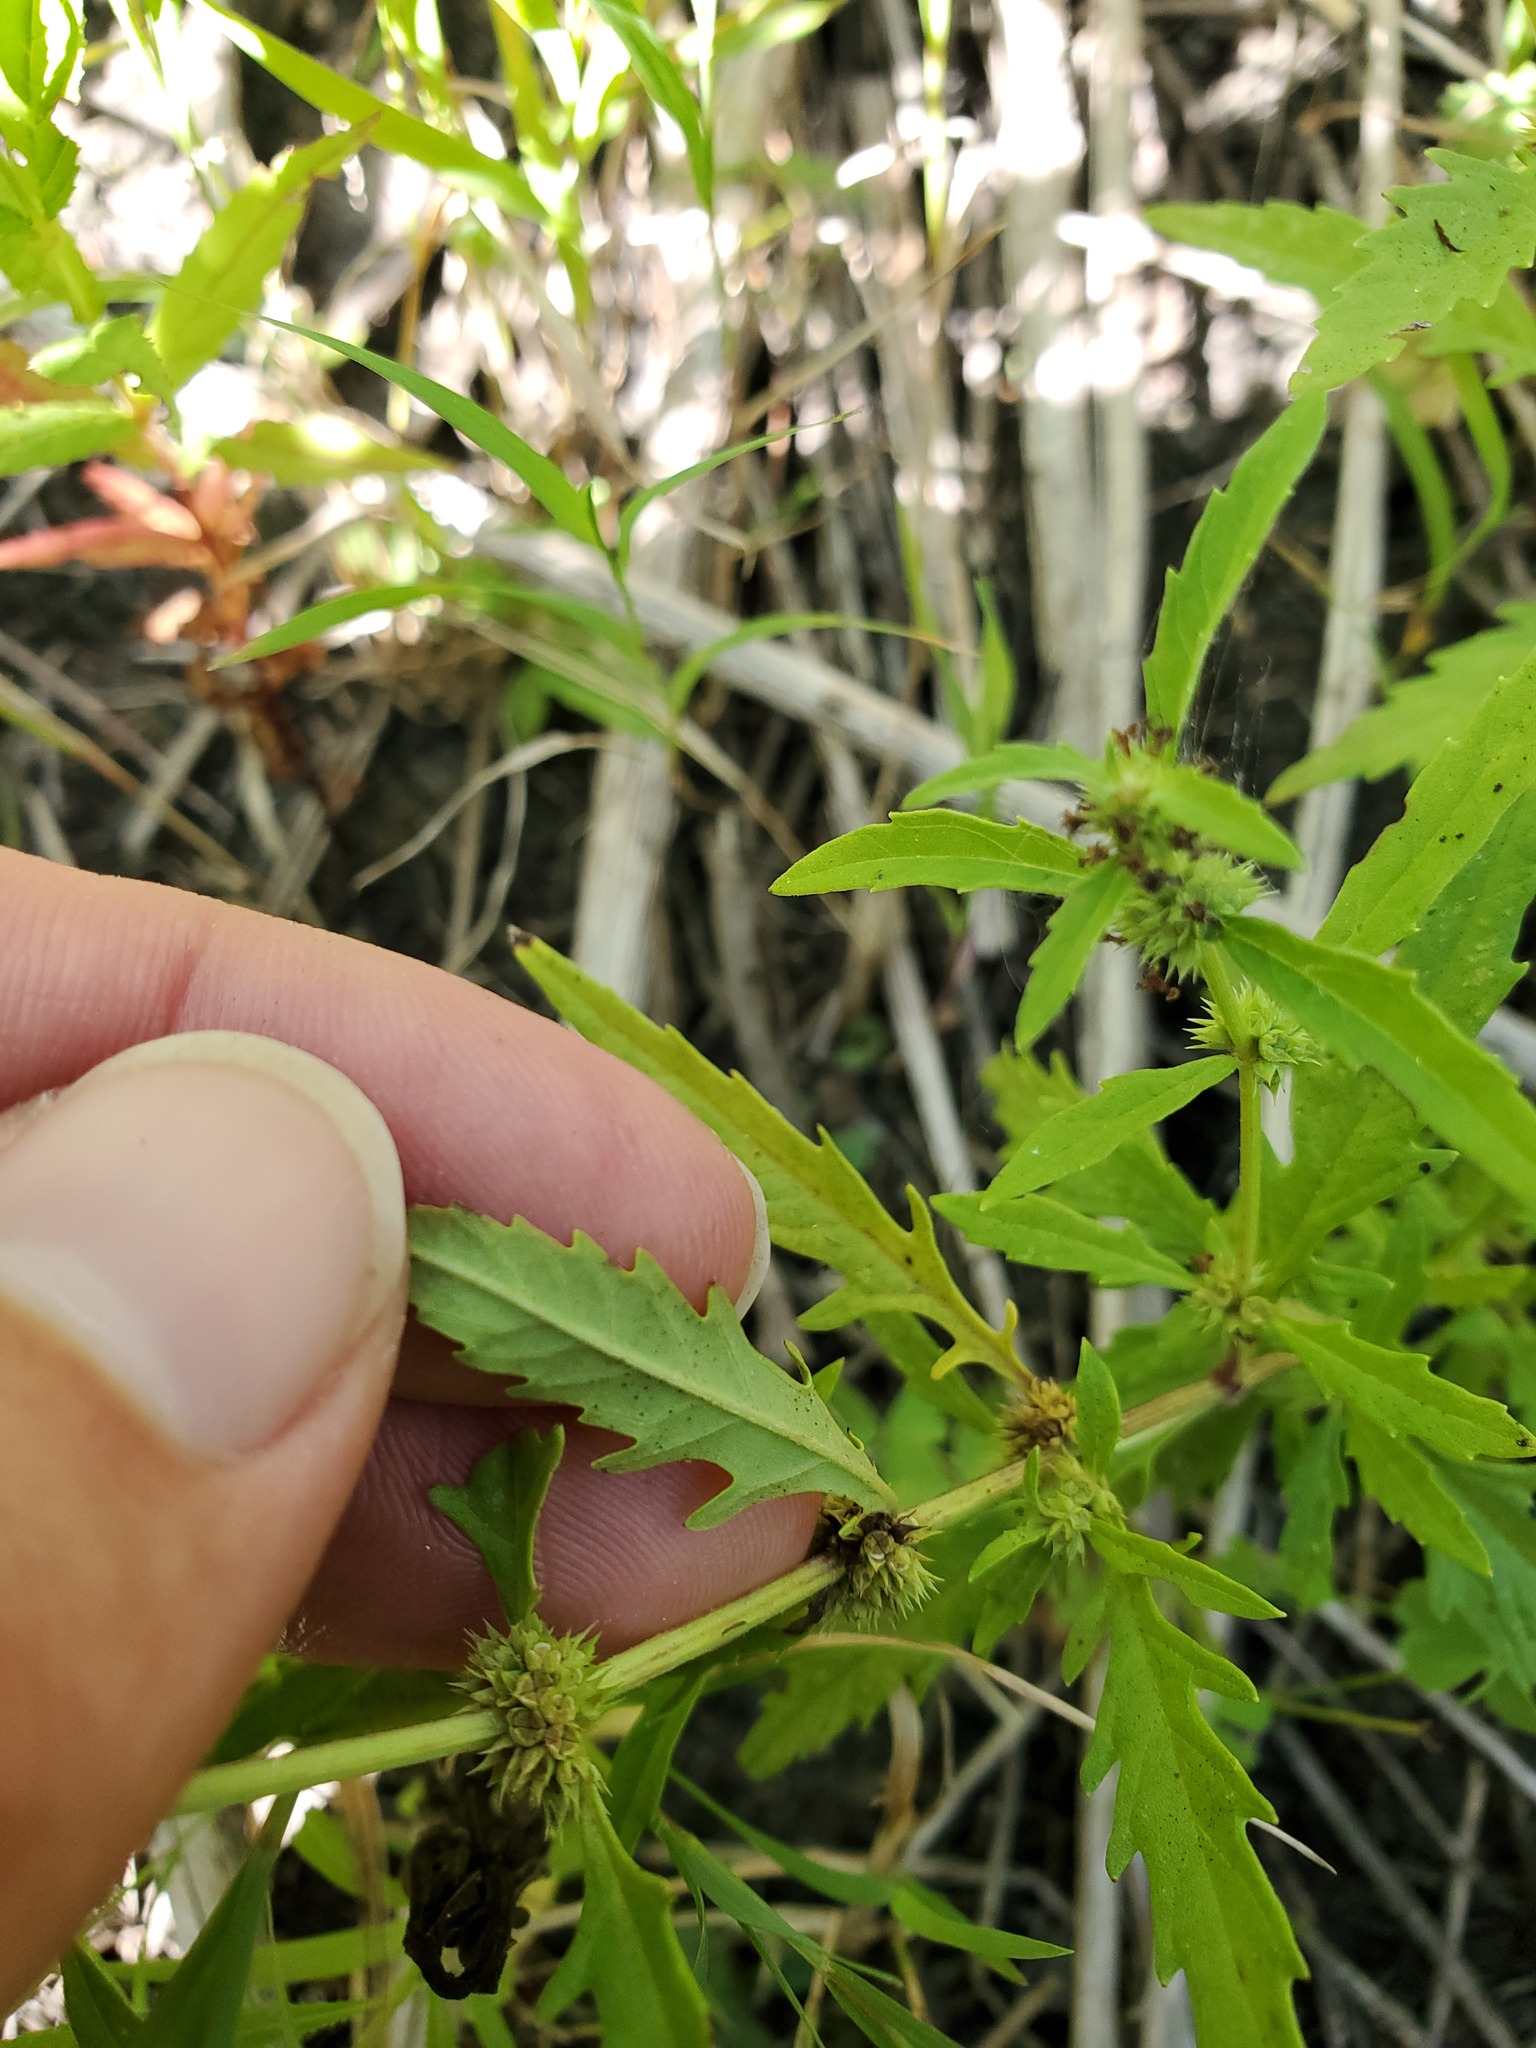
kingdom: Plantae
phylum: Tracheophyta
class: Magnoliopsida
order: Lamiales
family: Lamiaceae
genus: Lycopus
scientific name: Lycopus americanus
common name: American bugleweed
